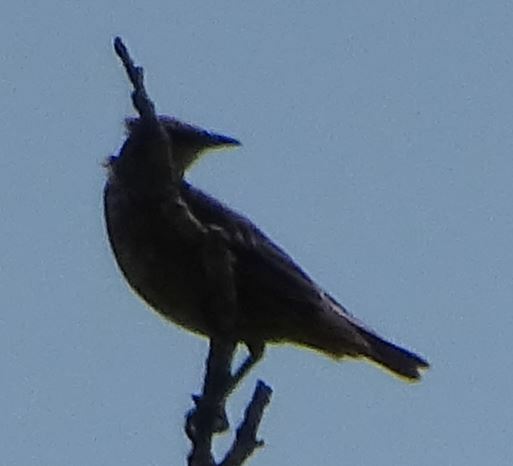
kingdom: Animalia
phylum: Chordata
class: Aves
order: Passeriformes
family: Sturnidae
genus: Sturnus
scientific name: Sturnus vulgaris
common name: Common starling
